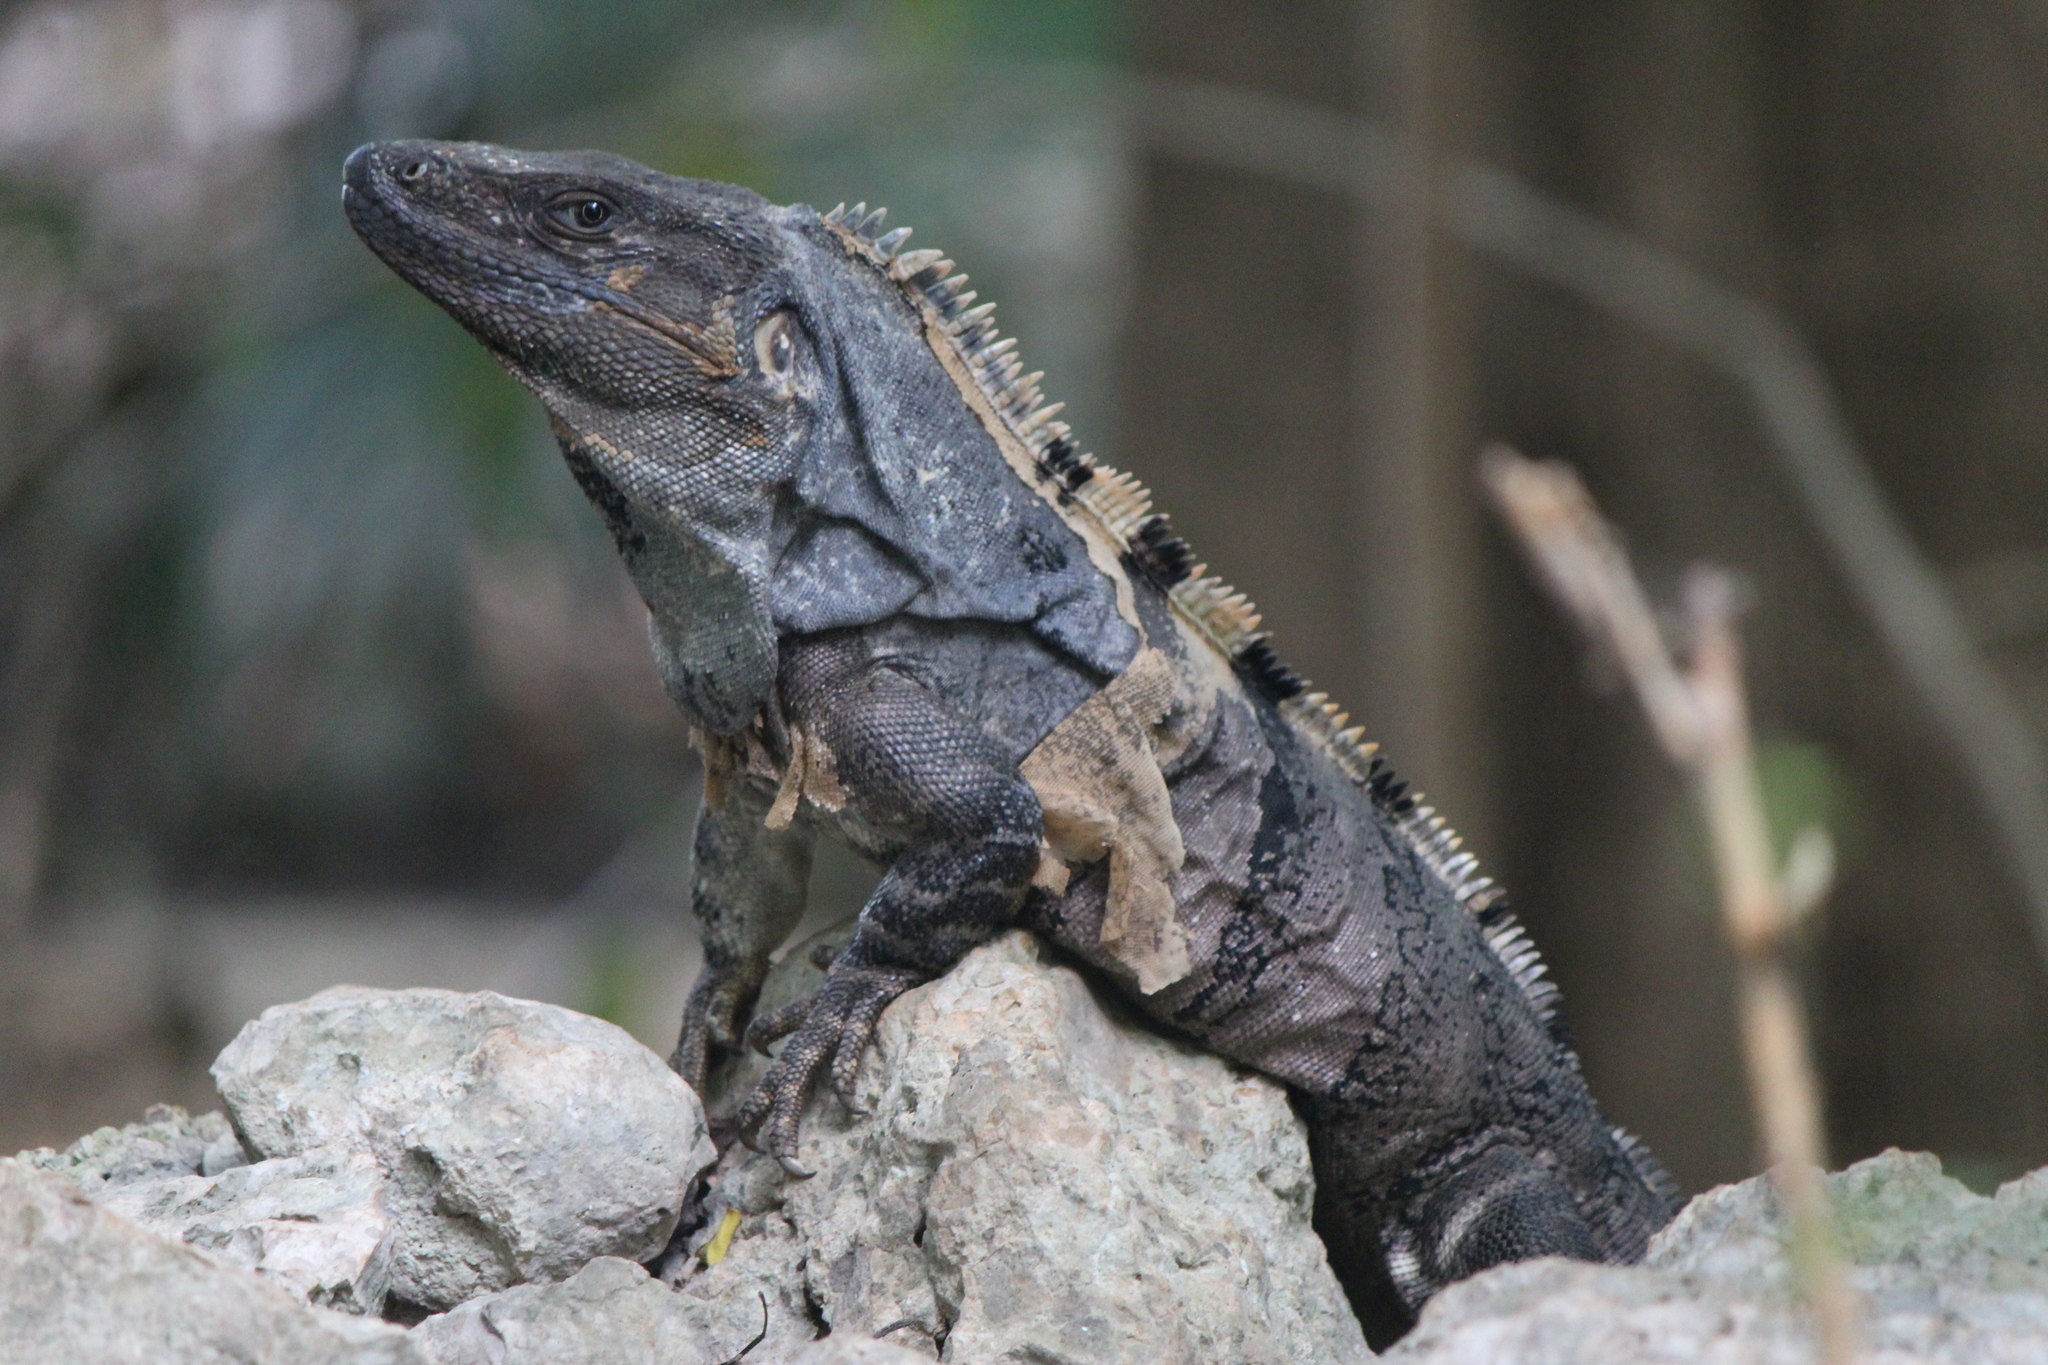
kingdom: Animalia
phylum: Chordata
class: Squamata
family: Iguanidae
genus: Ctenosaura
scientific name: Ctenosaura similis
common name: Black spiny-tailed iguana
